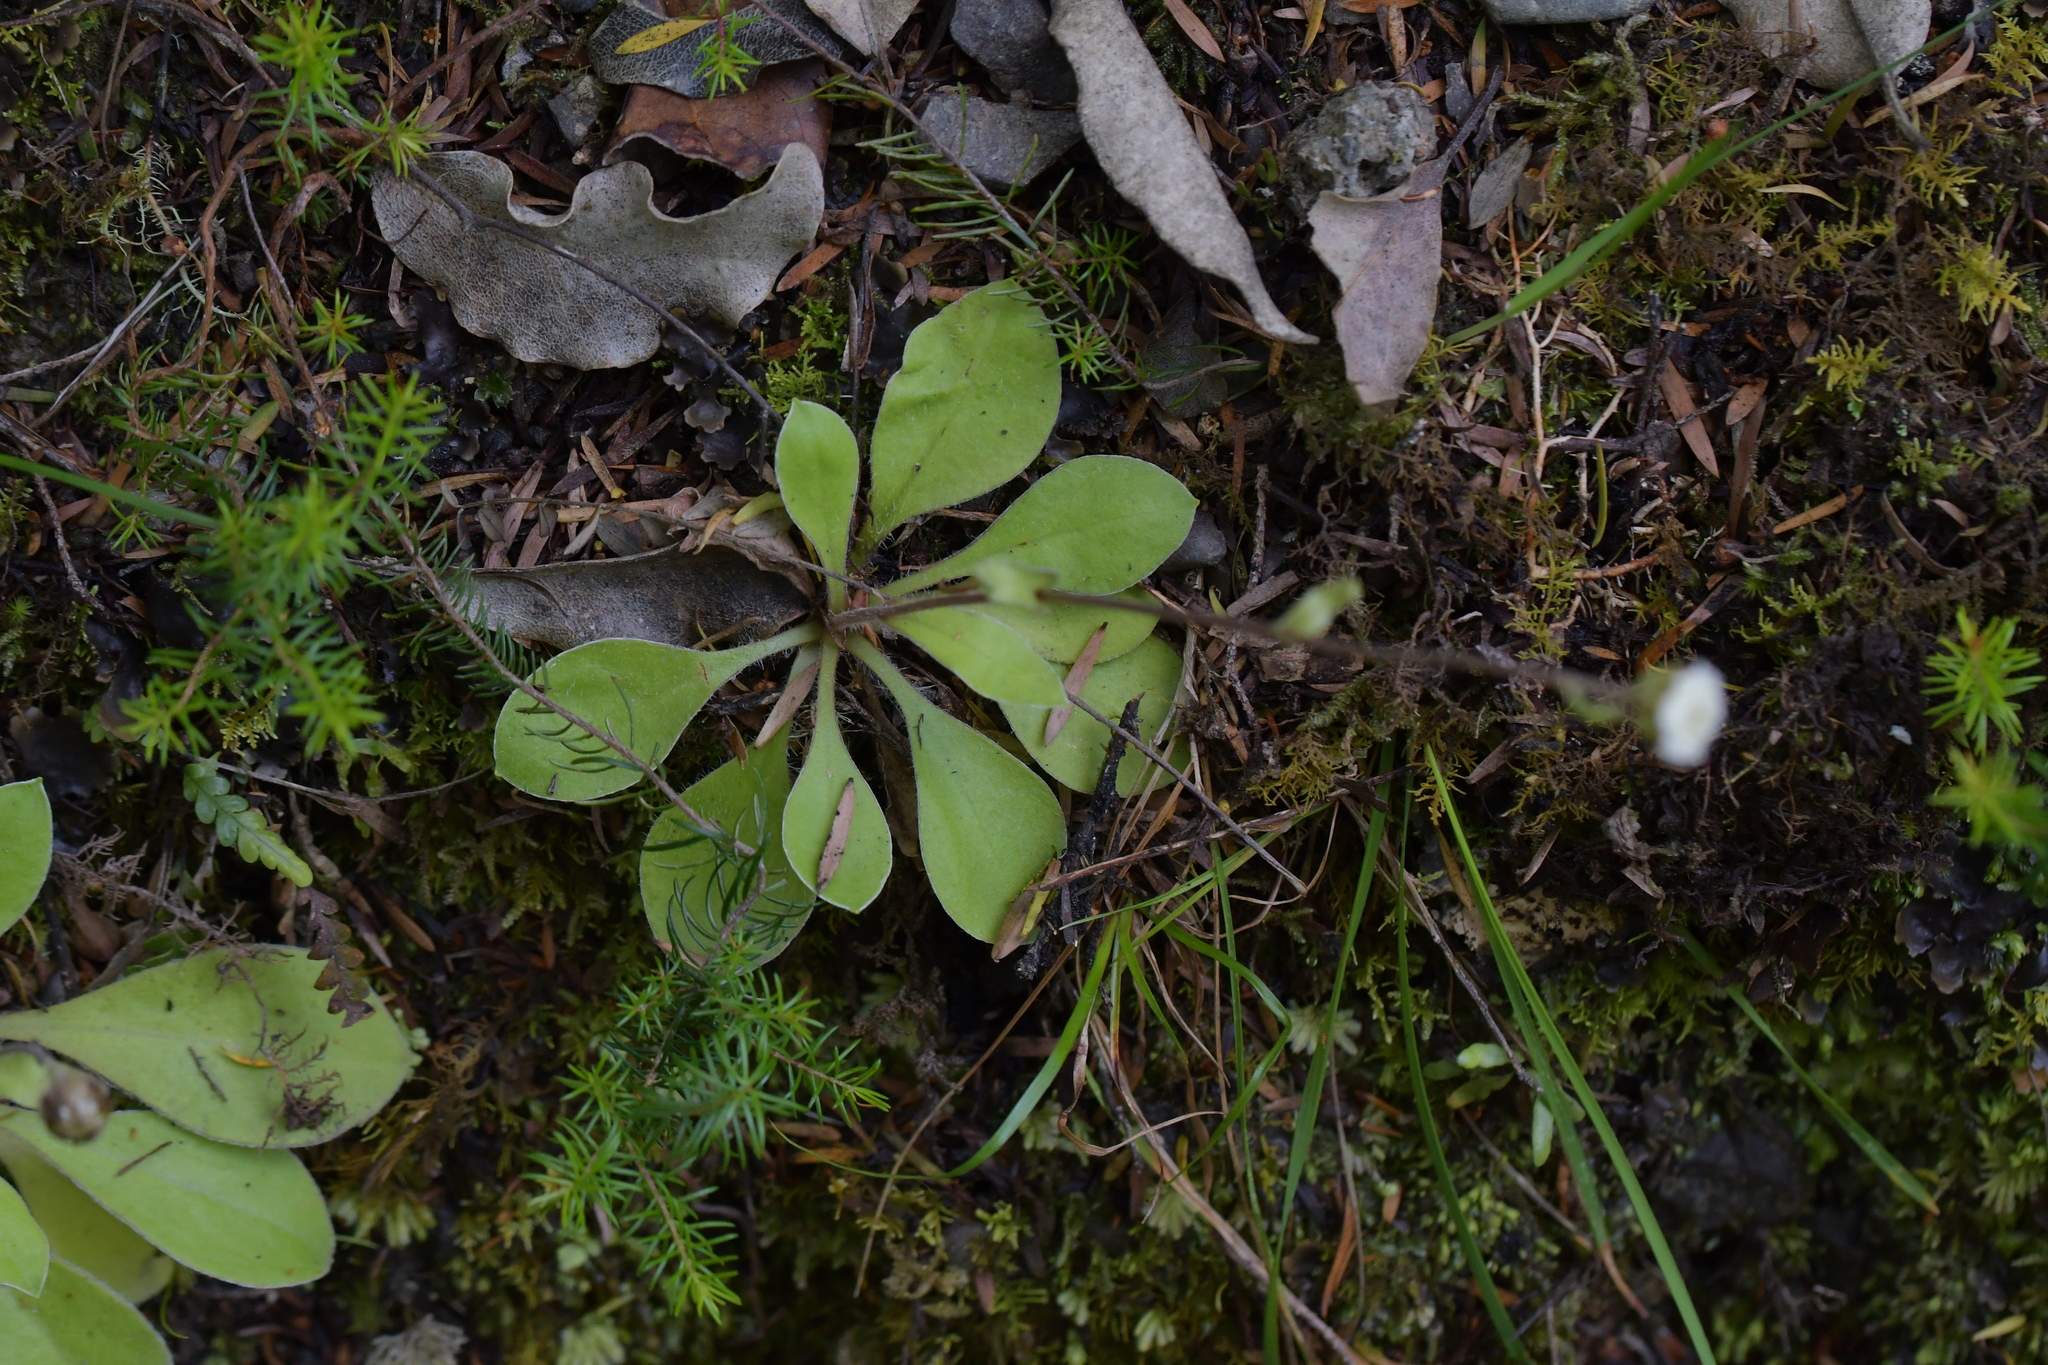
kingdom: Plantae
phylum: Tracheophyta
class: Magnoliopsida
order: Asterales
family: Asteraceae
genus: Craspedia
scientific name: Craspedia uniflora
